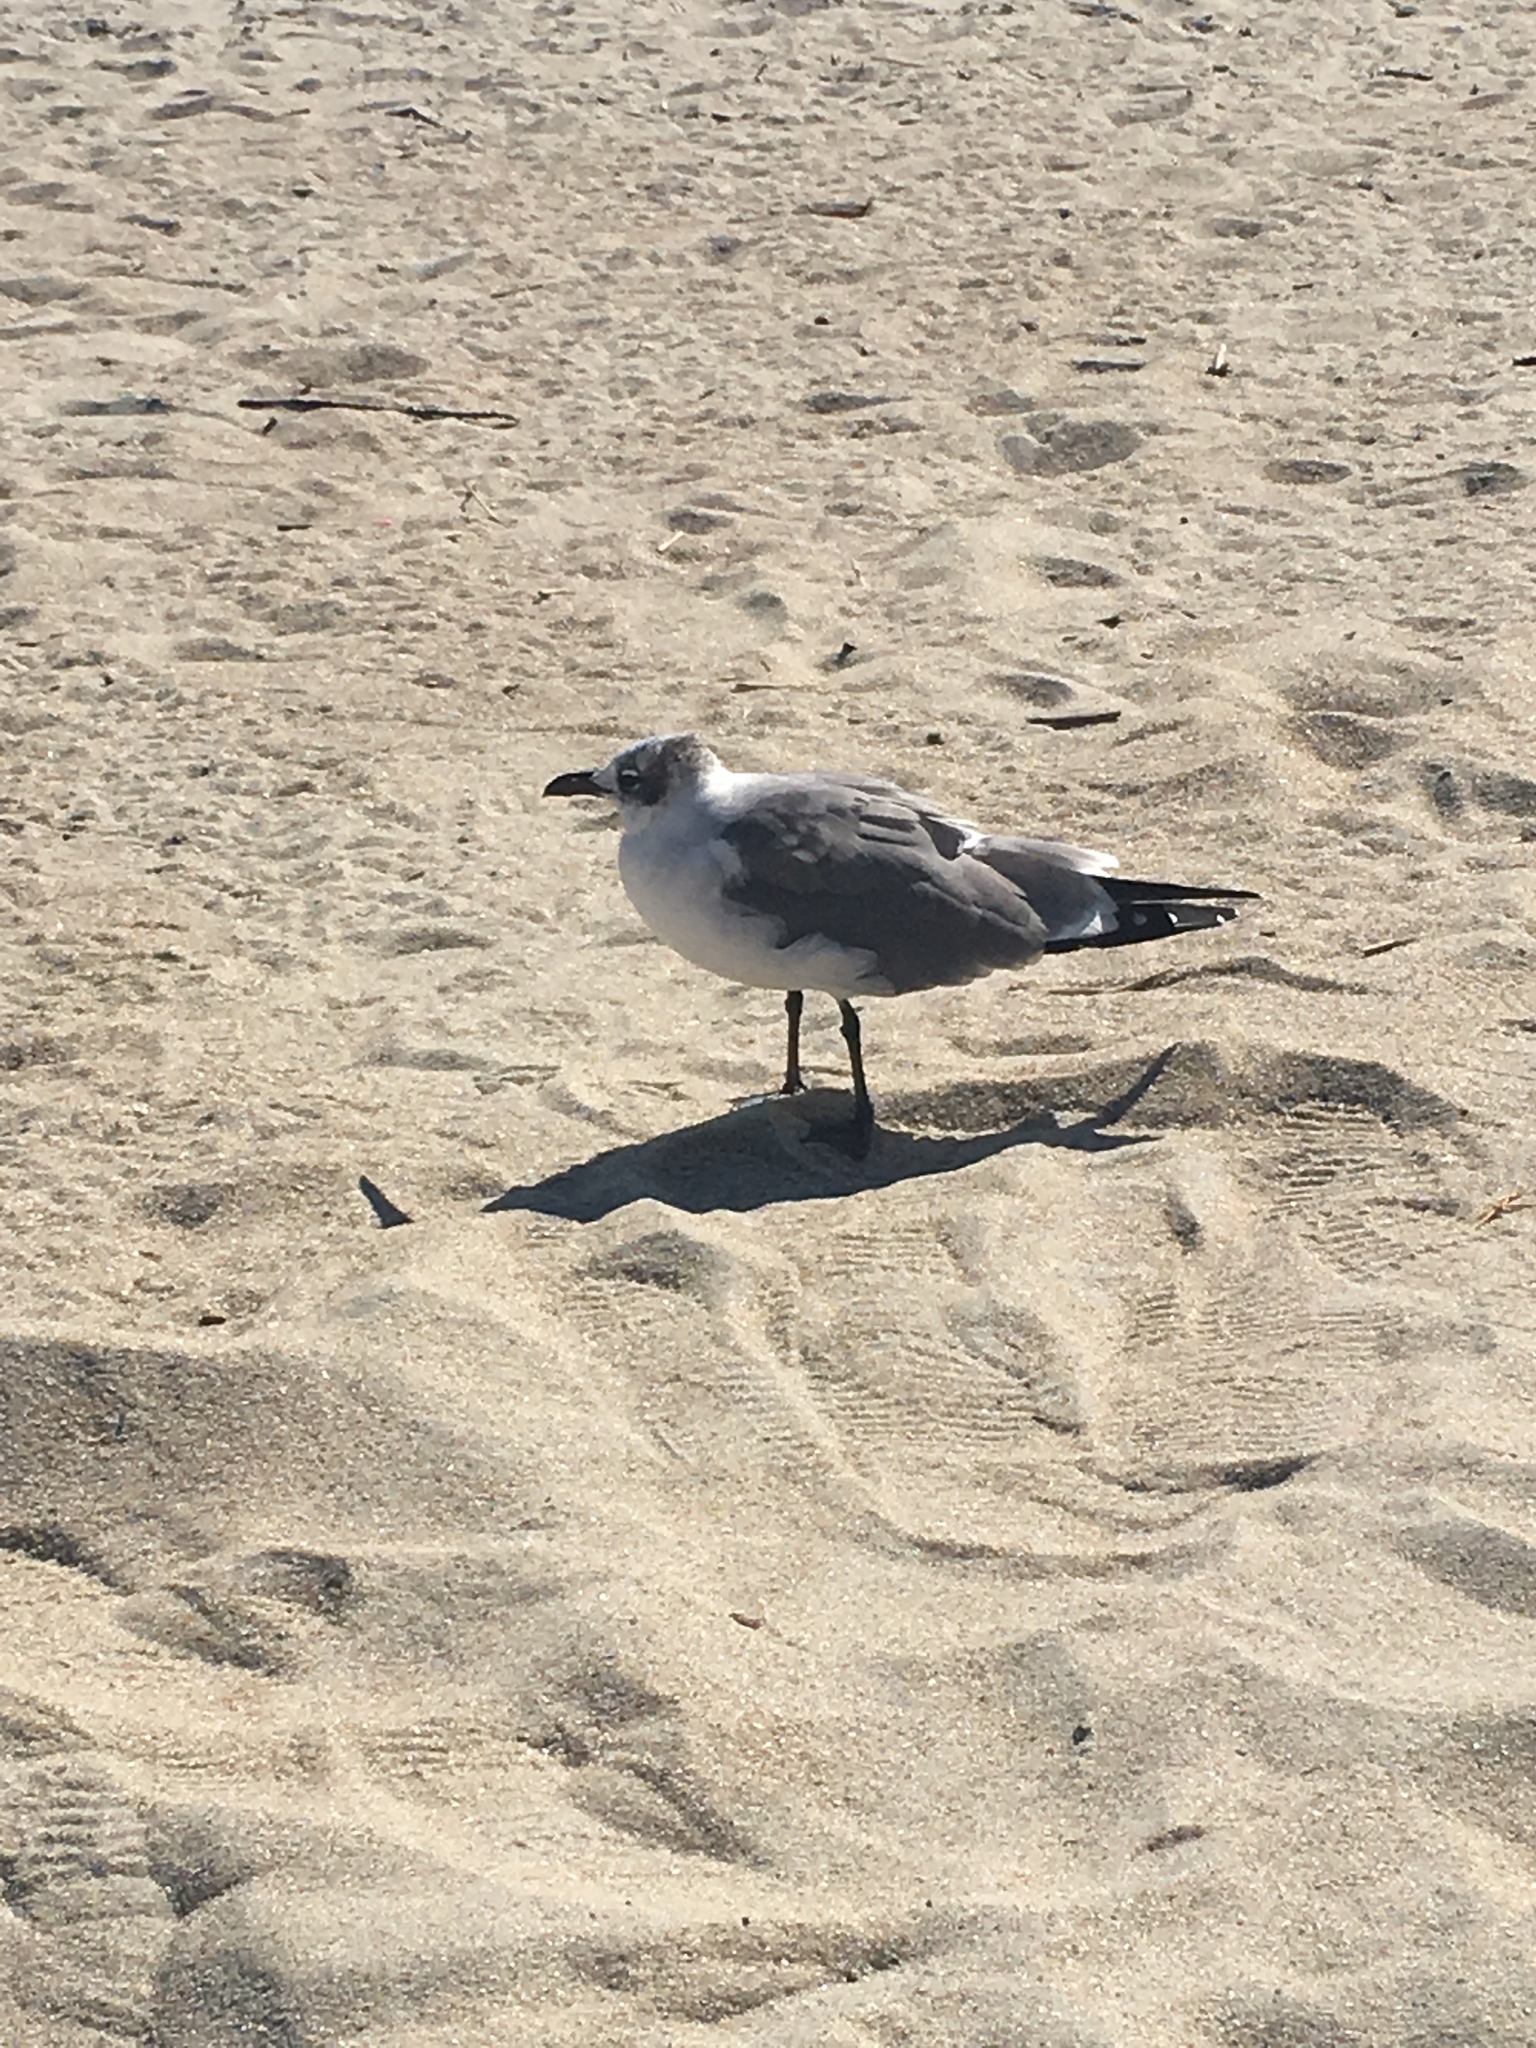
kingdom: Animalia
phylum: Chordata
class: Aves
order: Charadriiformes
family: Laridae
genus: Leucophaeus
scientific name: Leucophaeus atricilla
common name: Laughing gull
